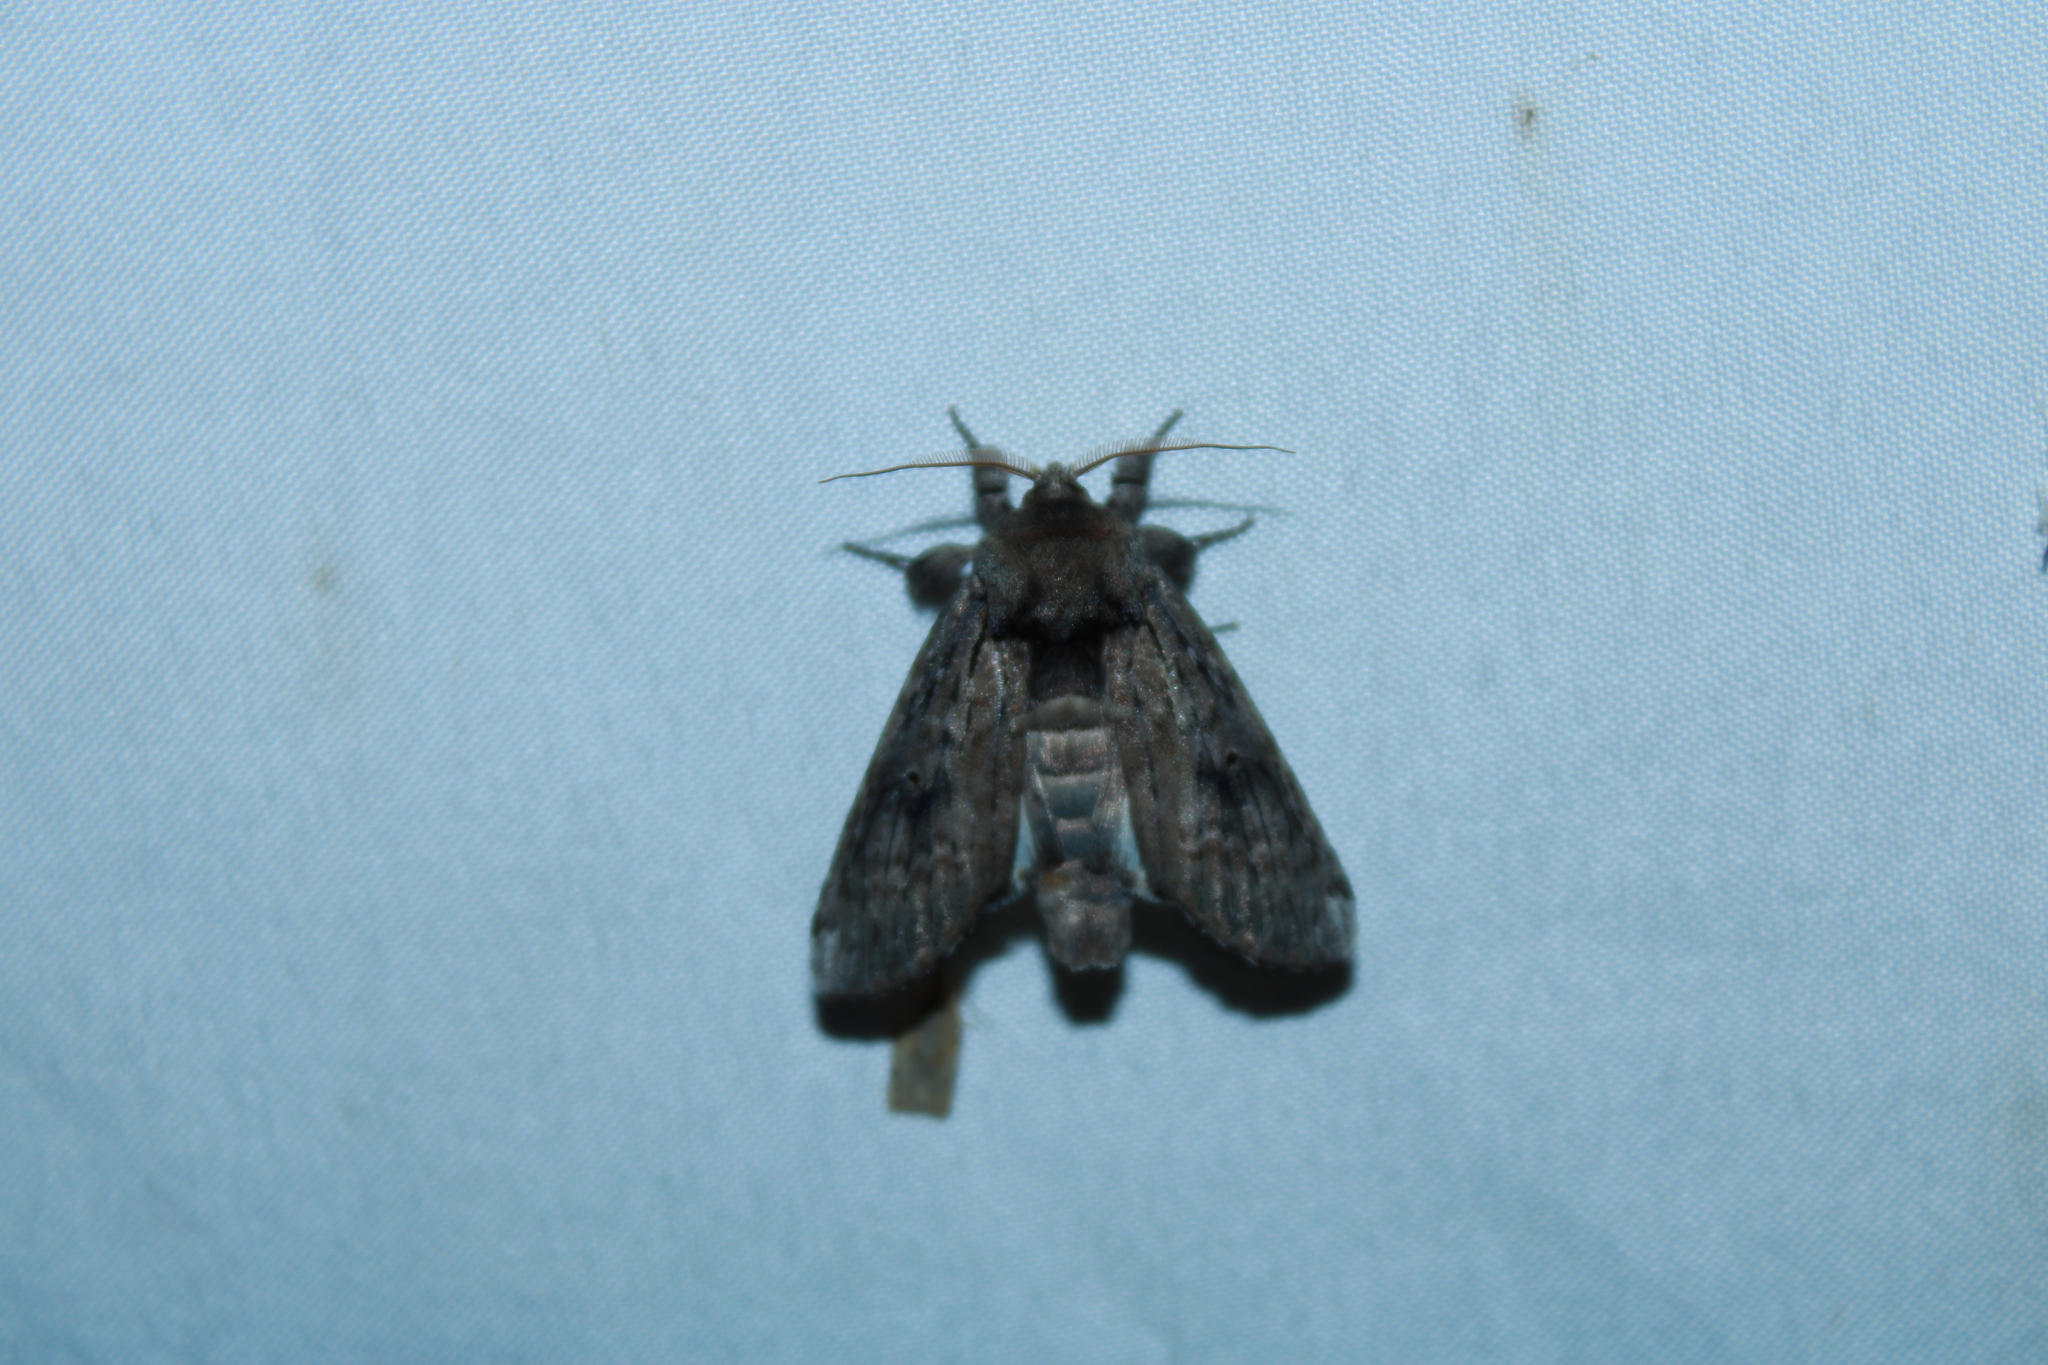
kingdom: Animalia
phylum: Arthropoda
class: Insecta
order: Lepidoptera
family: Notodontidae
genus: Schizura
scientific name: Schizura
